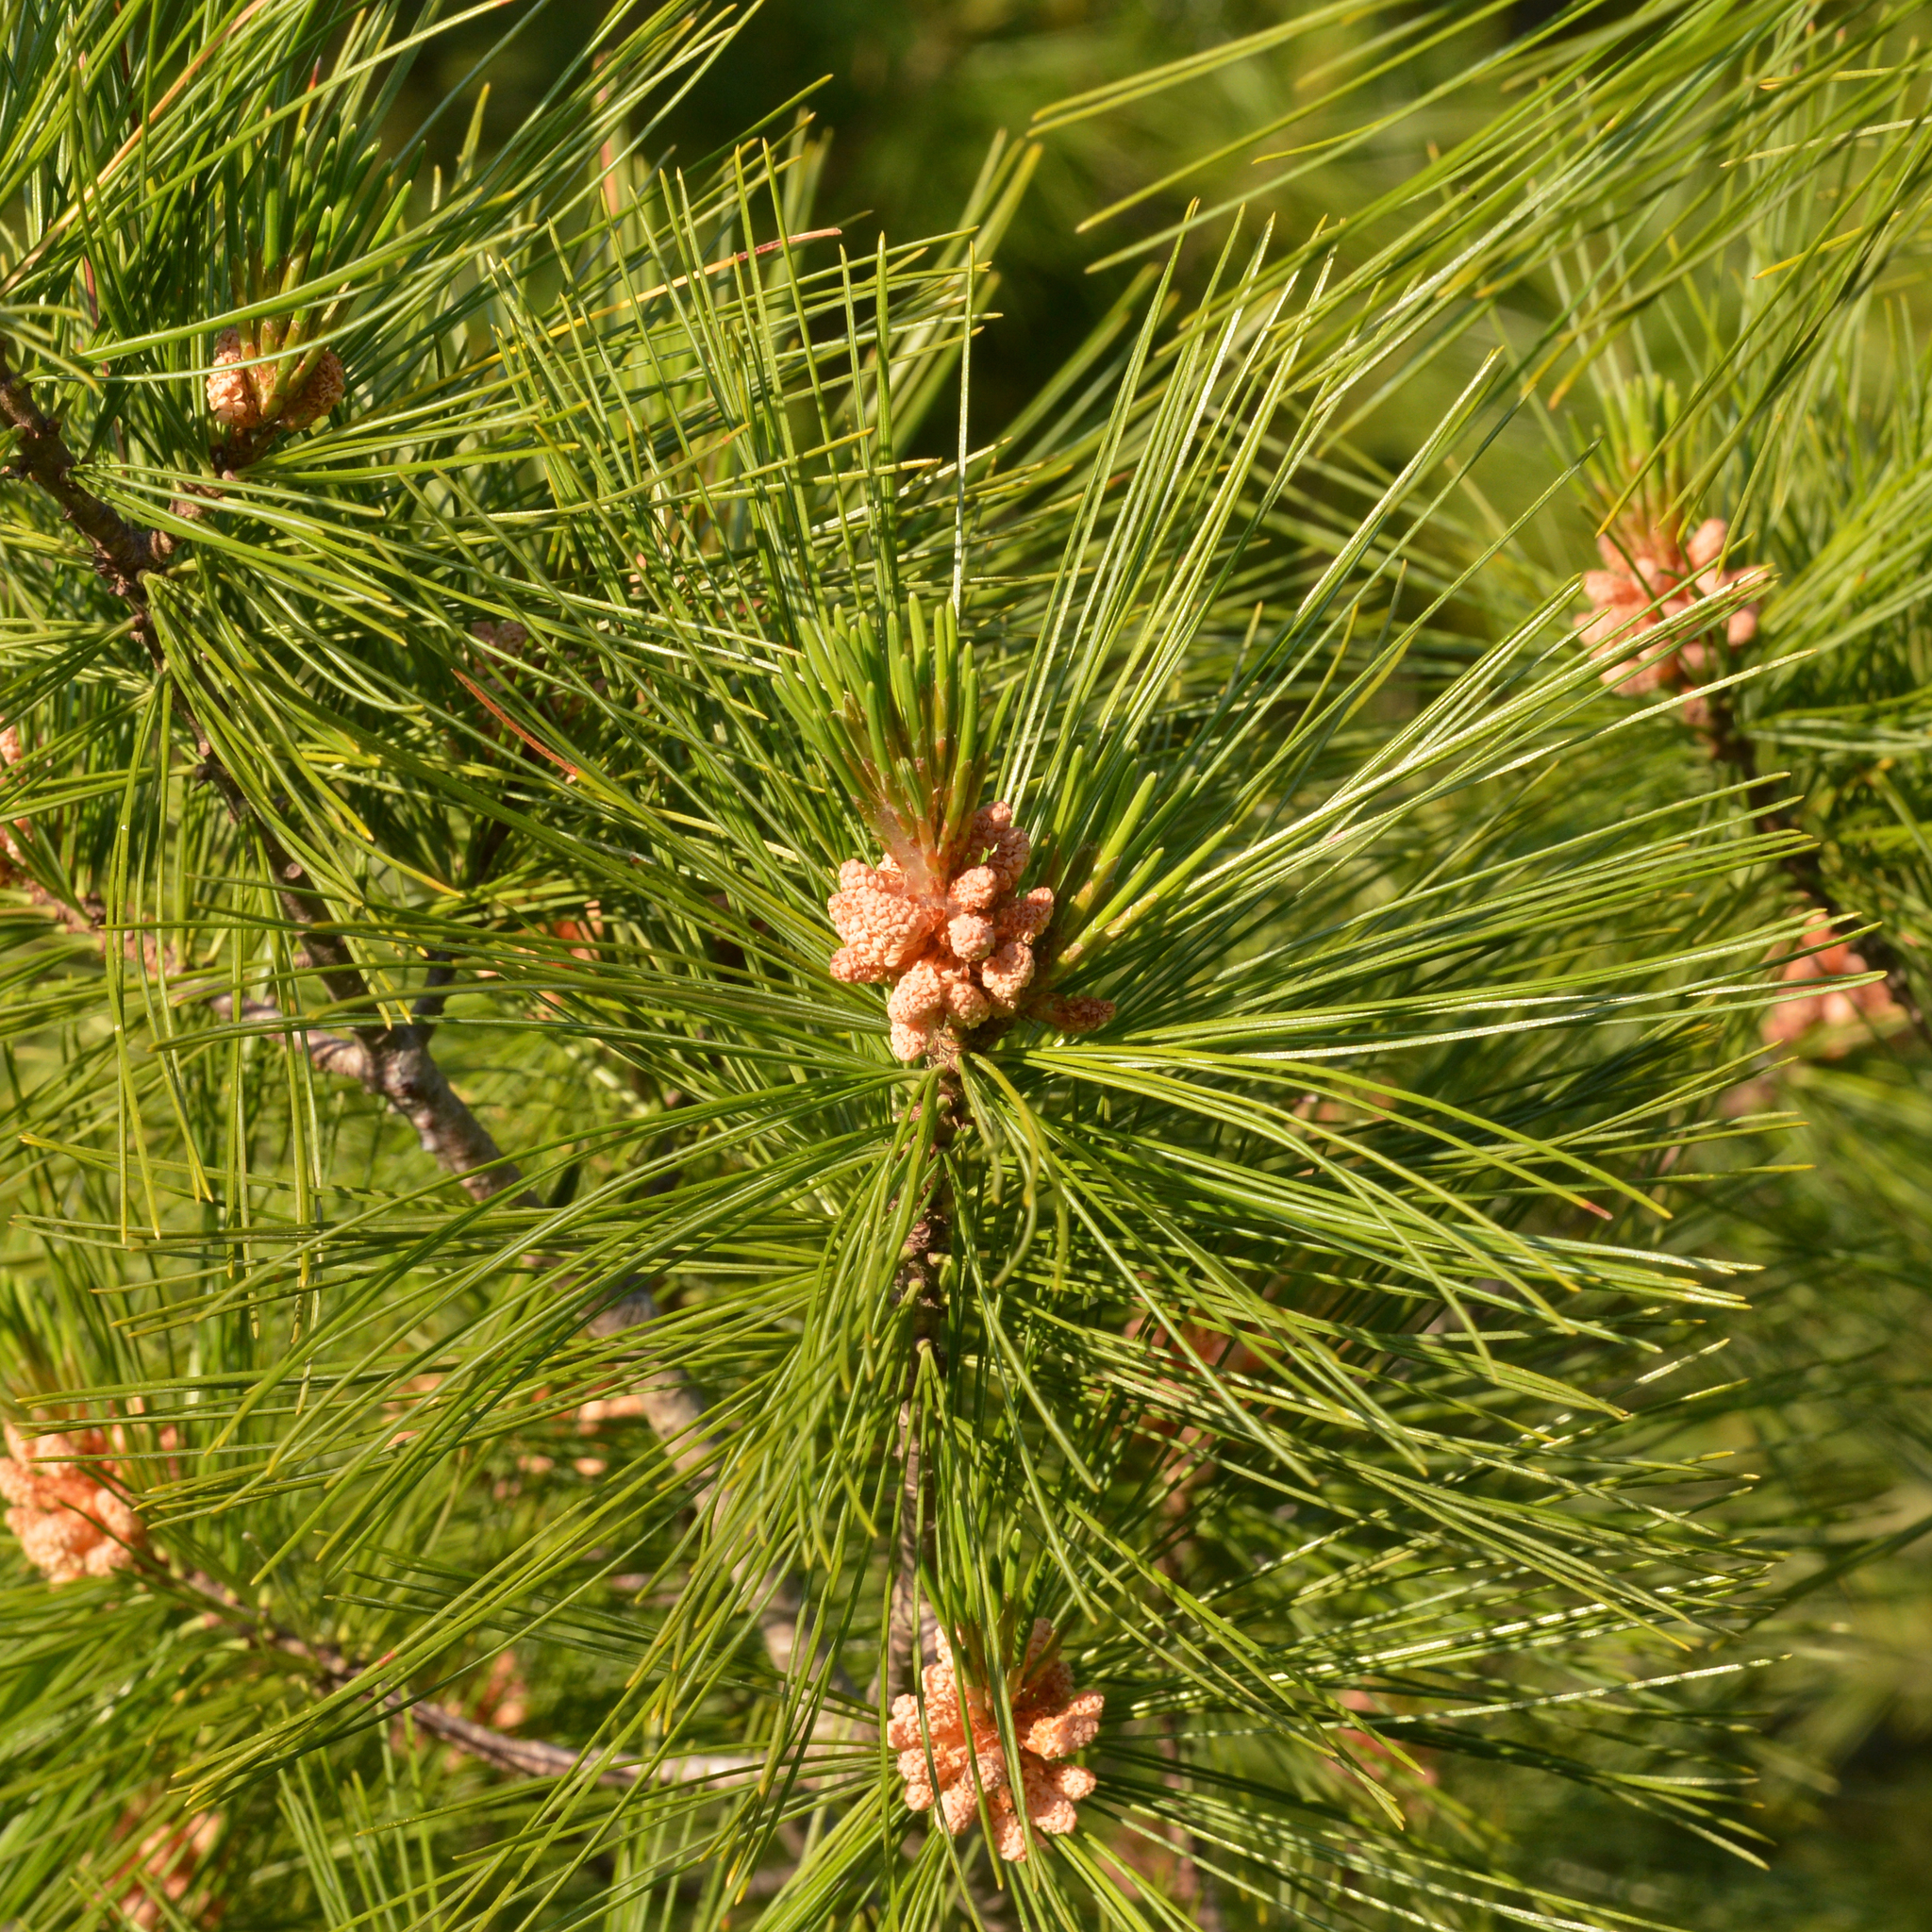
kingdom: Plantae
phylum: Tracheophyta
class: Pinopsida
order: Pinales
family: Pinaceae
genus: Pinus
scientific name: Pinus strobus
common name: Weymouth pine
